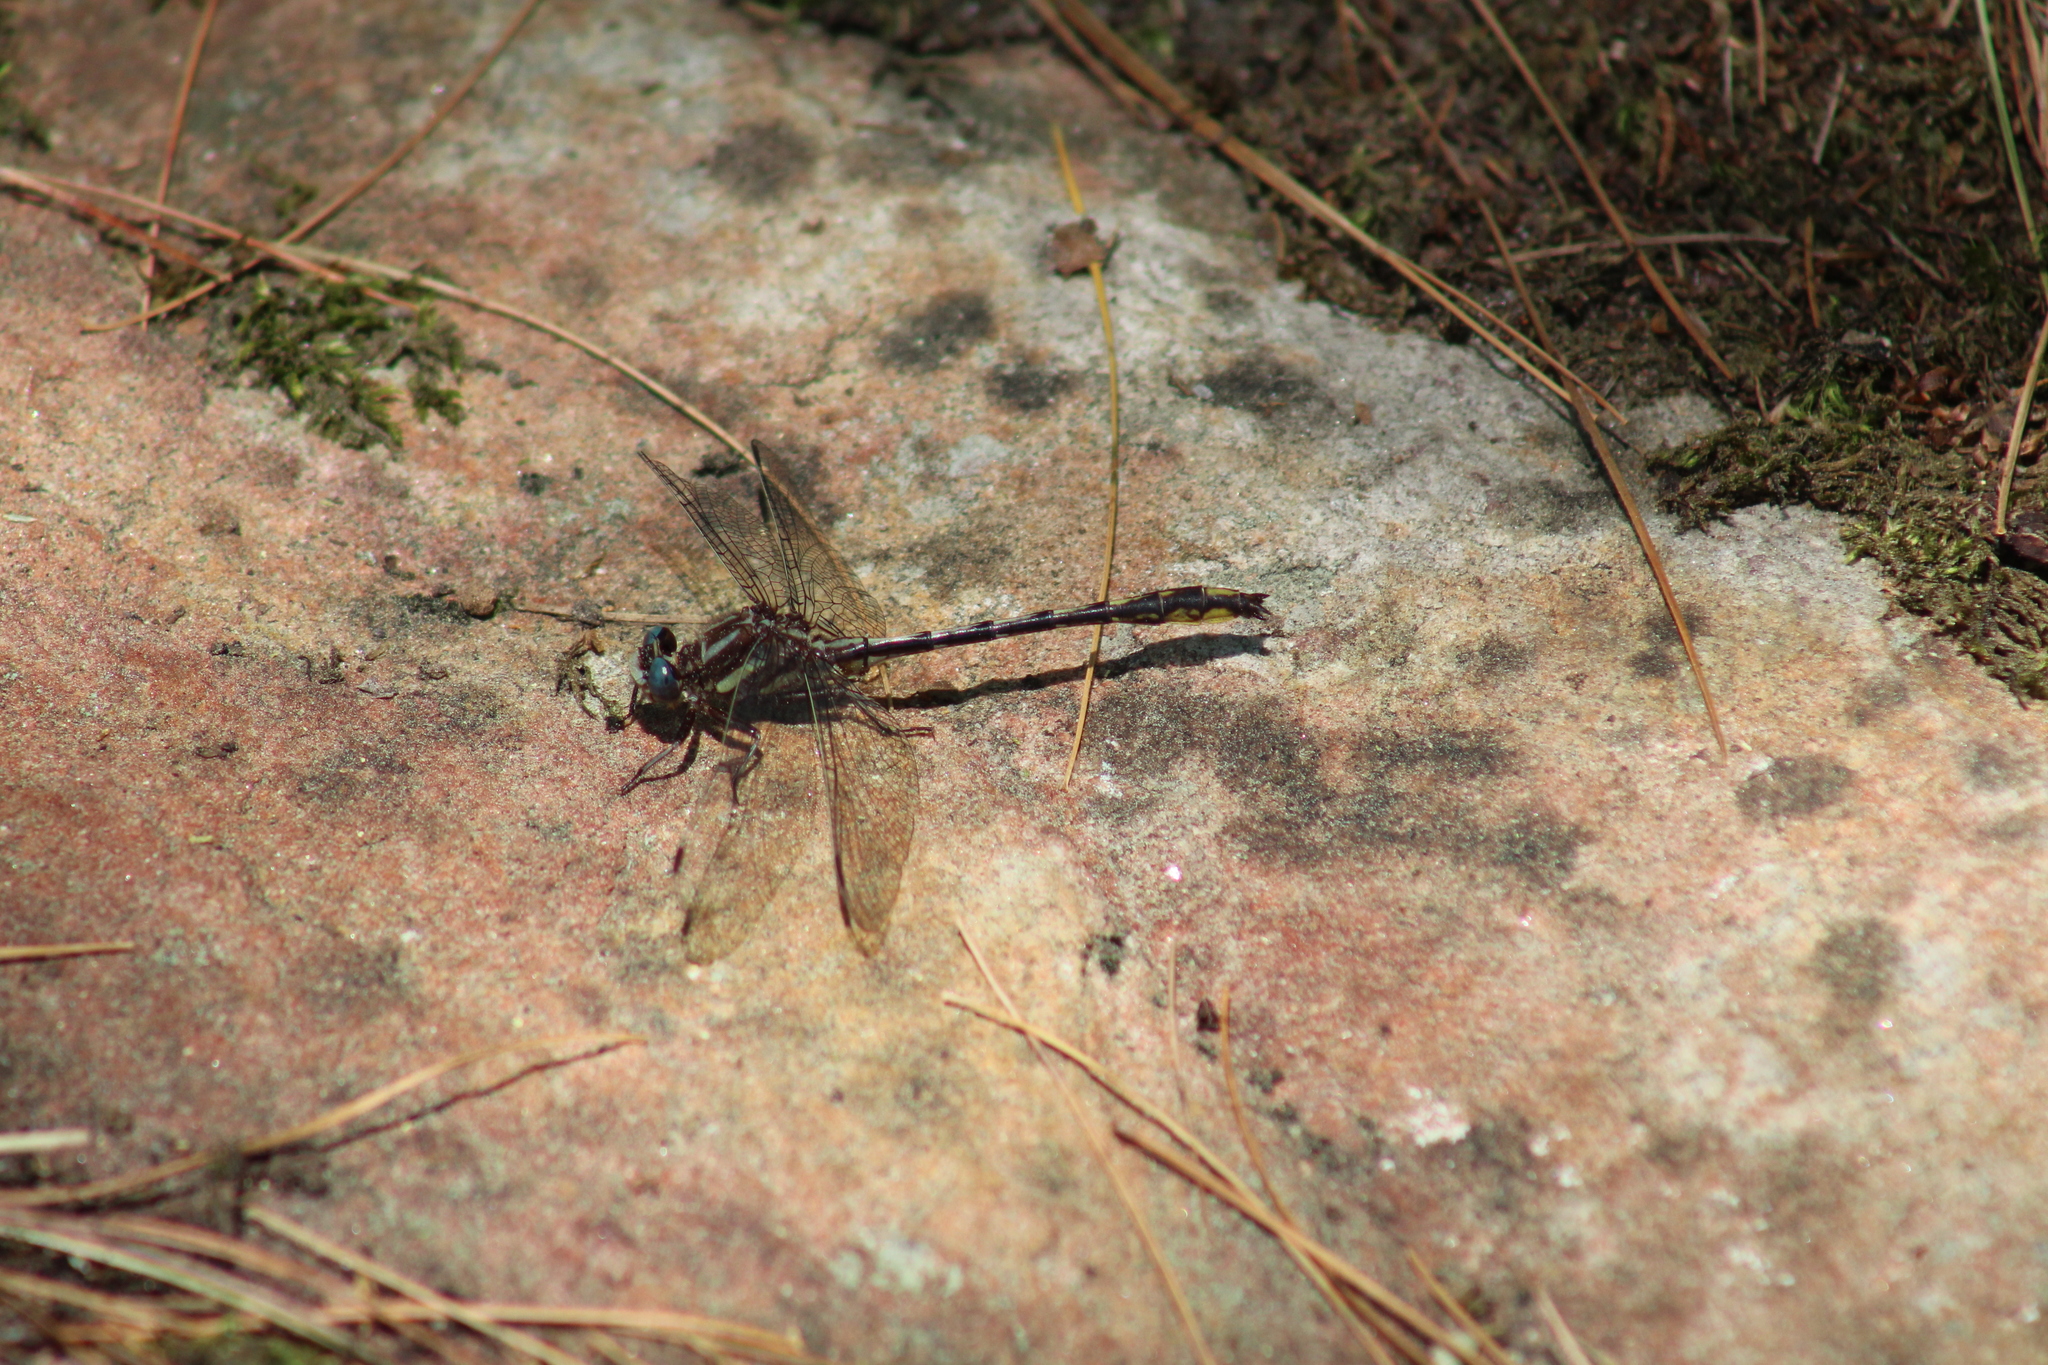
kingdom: Animalia
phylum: Arthropoda
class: Insecta
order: Odonata
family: Gomphidae
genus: Phanogomphus
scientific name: Phanogomphus exilis
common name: Lancet clubtail
